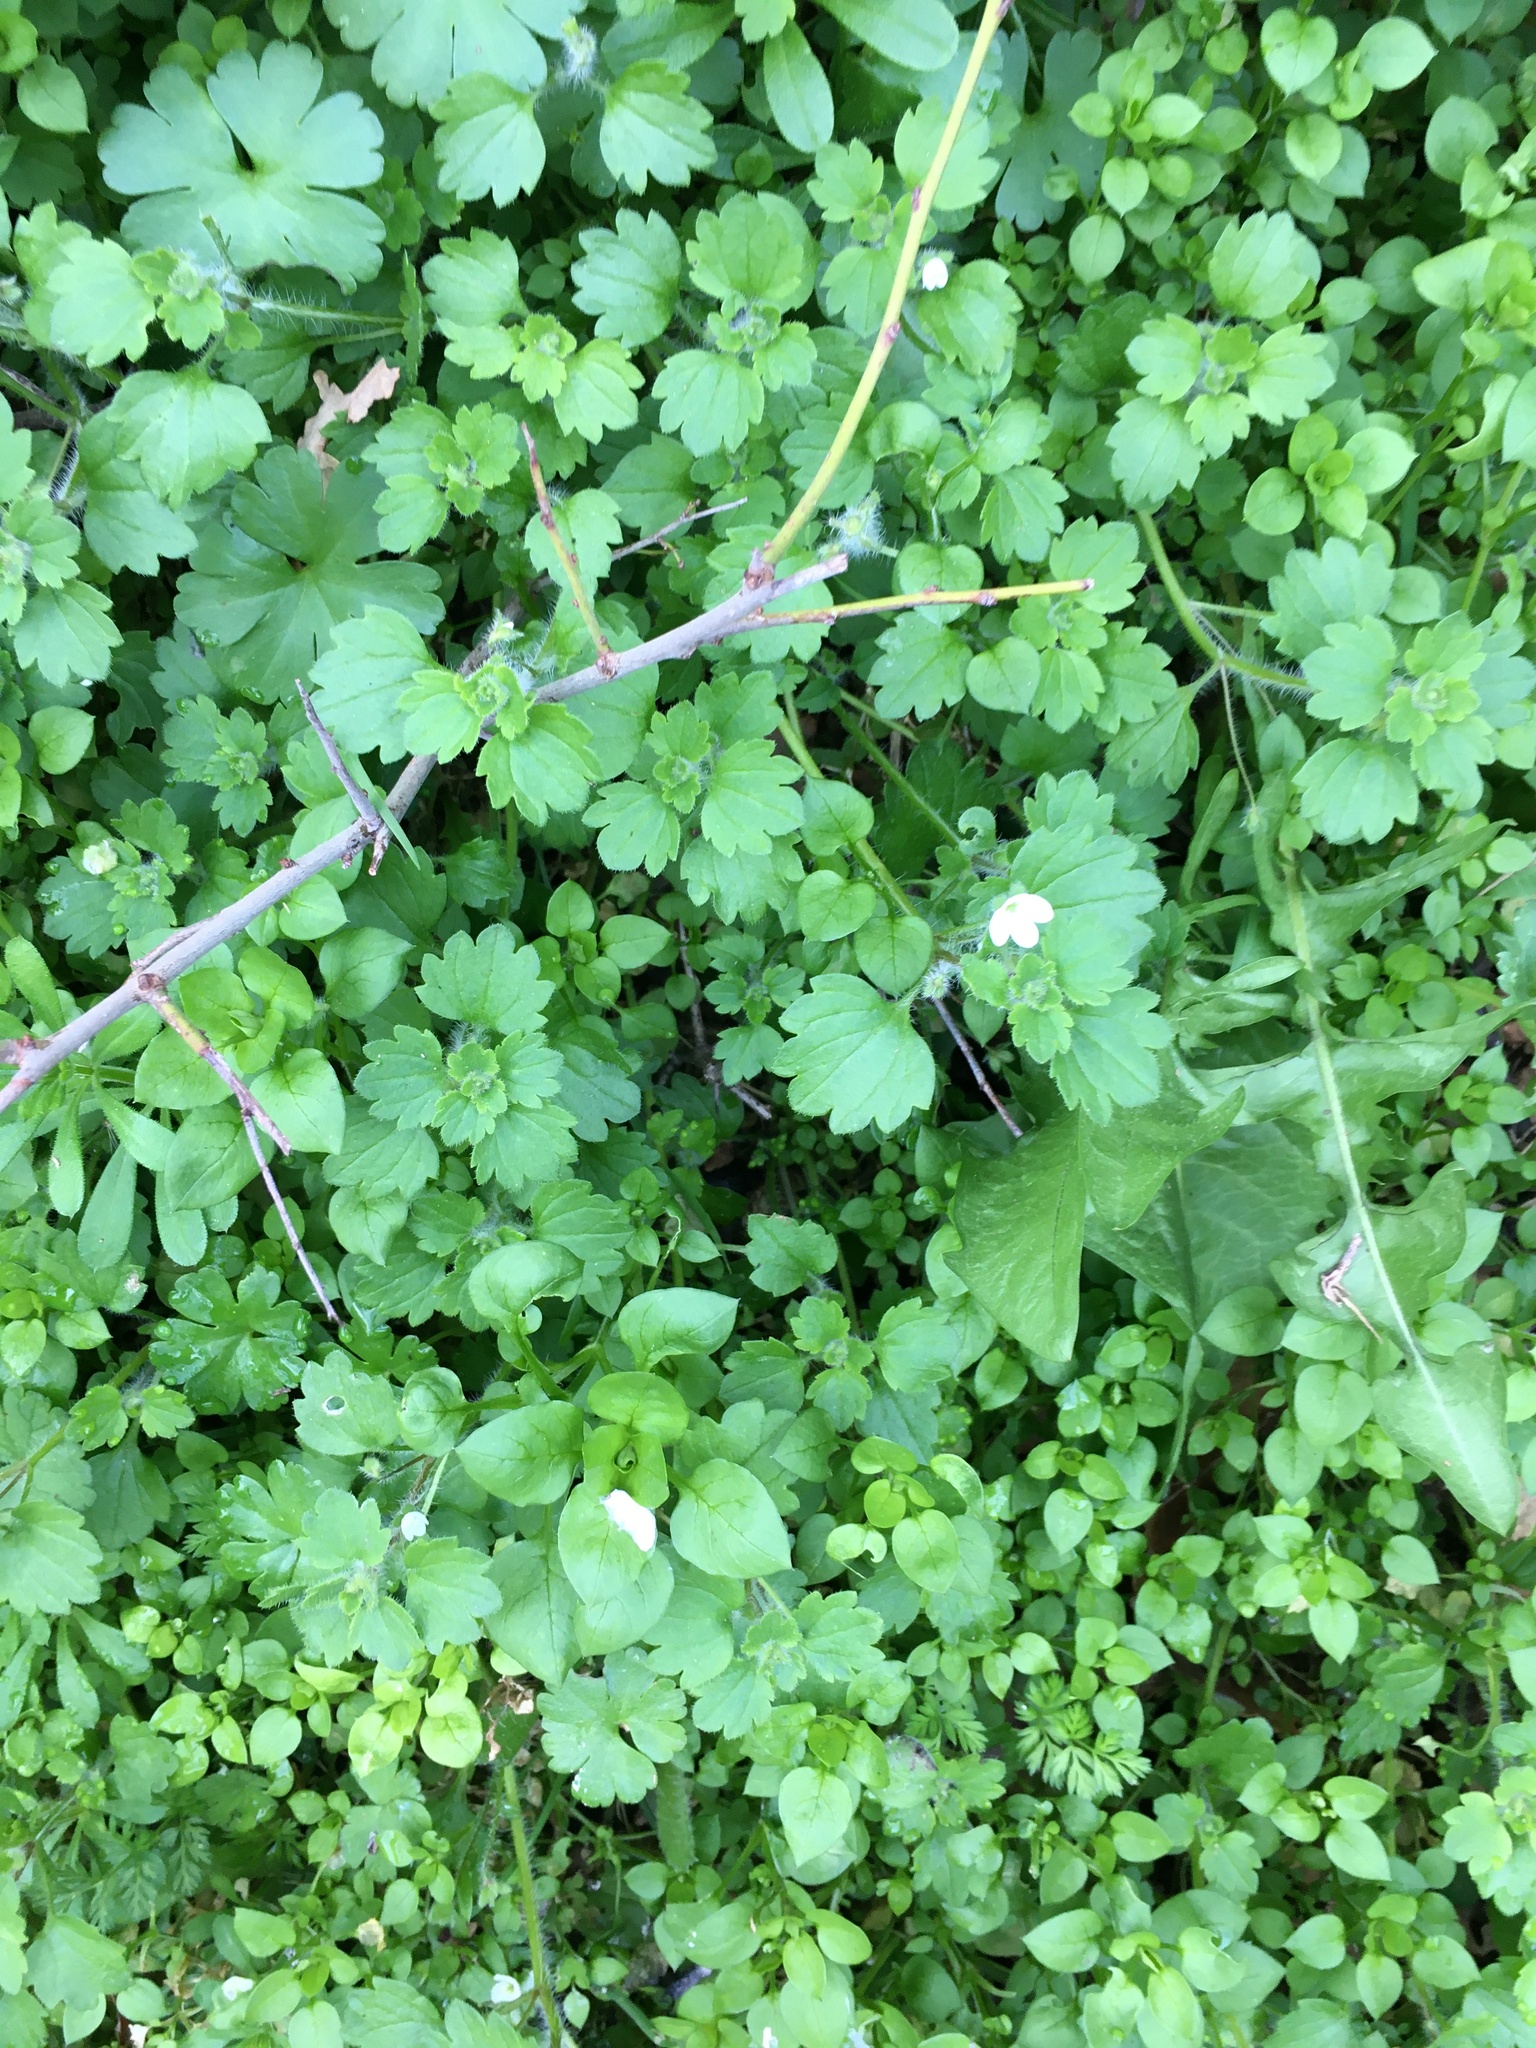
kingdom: Plantae
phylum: Tracheophyta
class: Magnoliopsida
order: Lamiales
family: Plantaginaceae
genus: Veronica
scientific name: Veronica cymbalaria
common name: Pale speedwell
